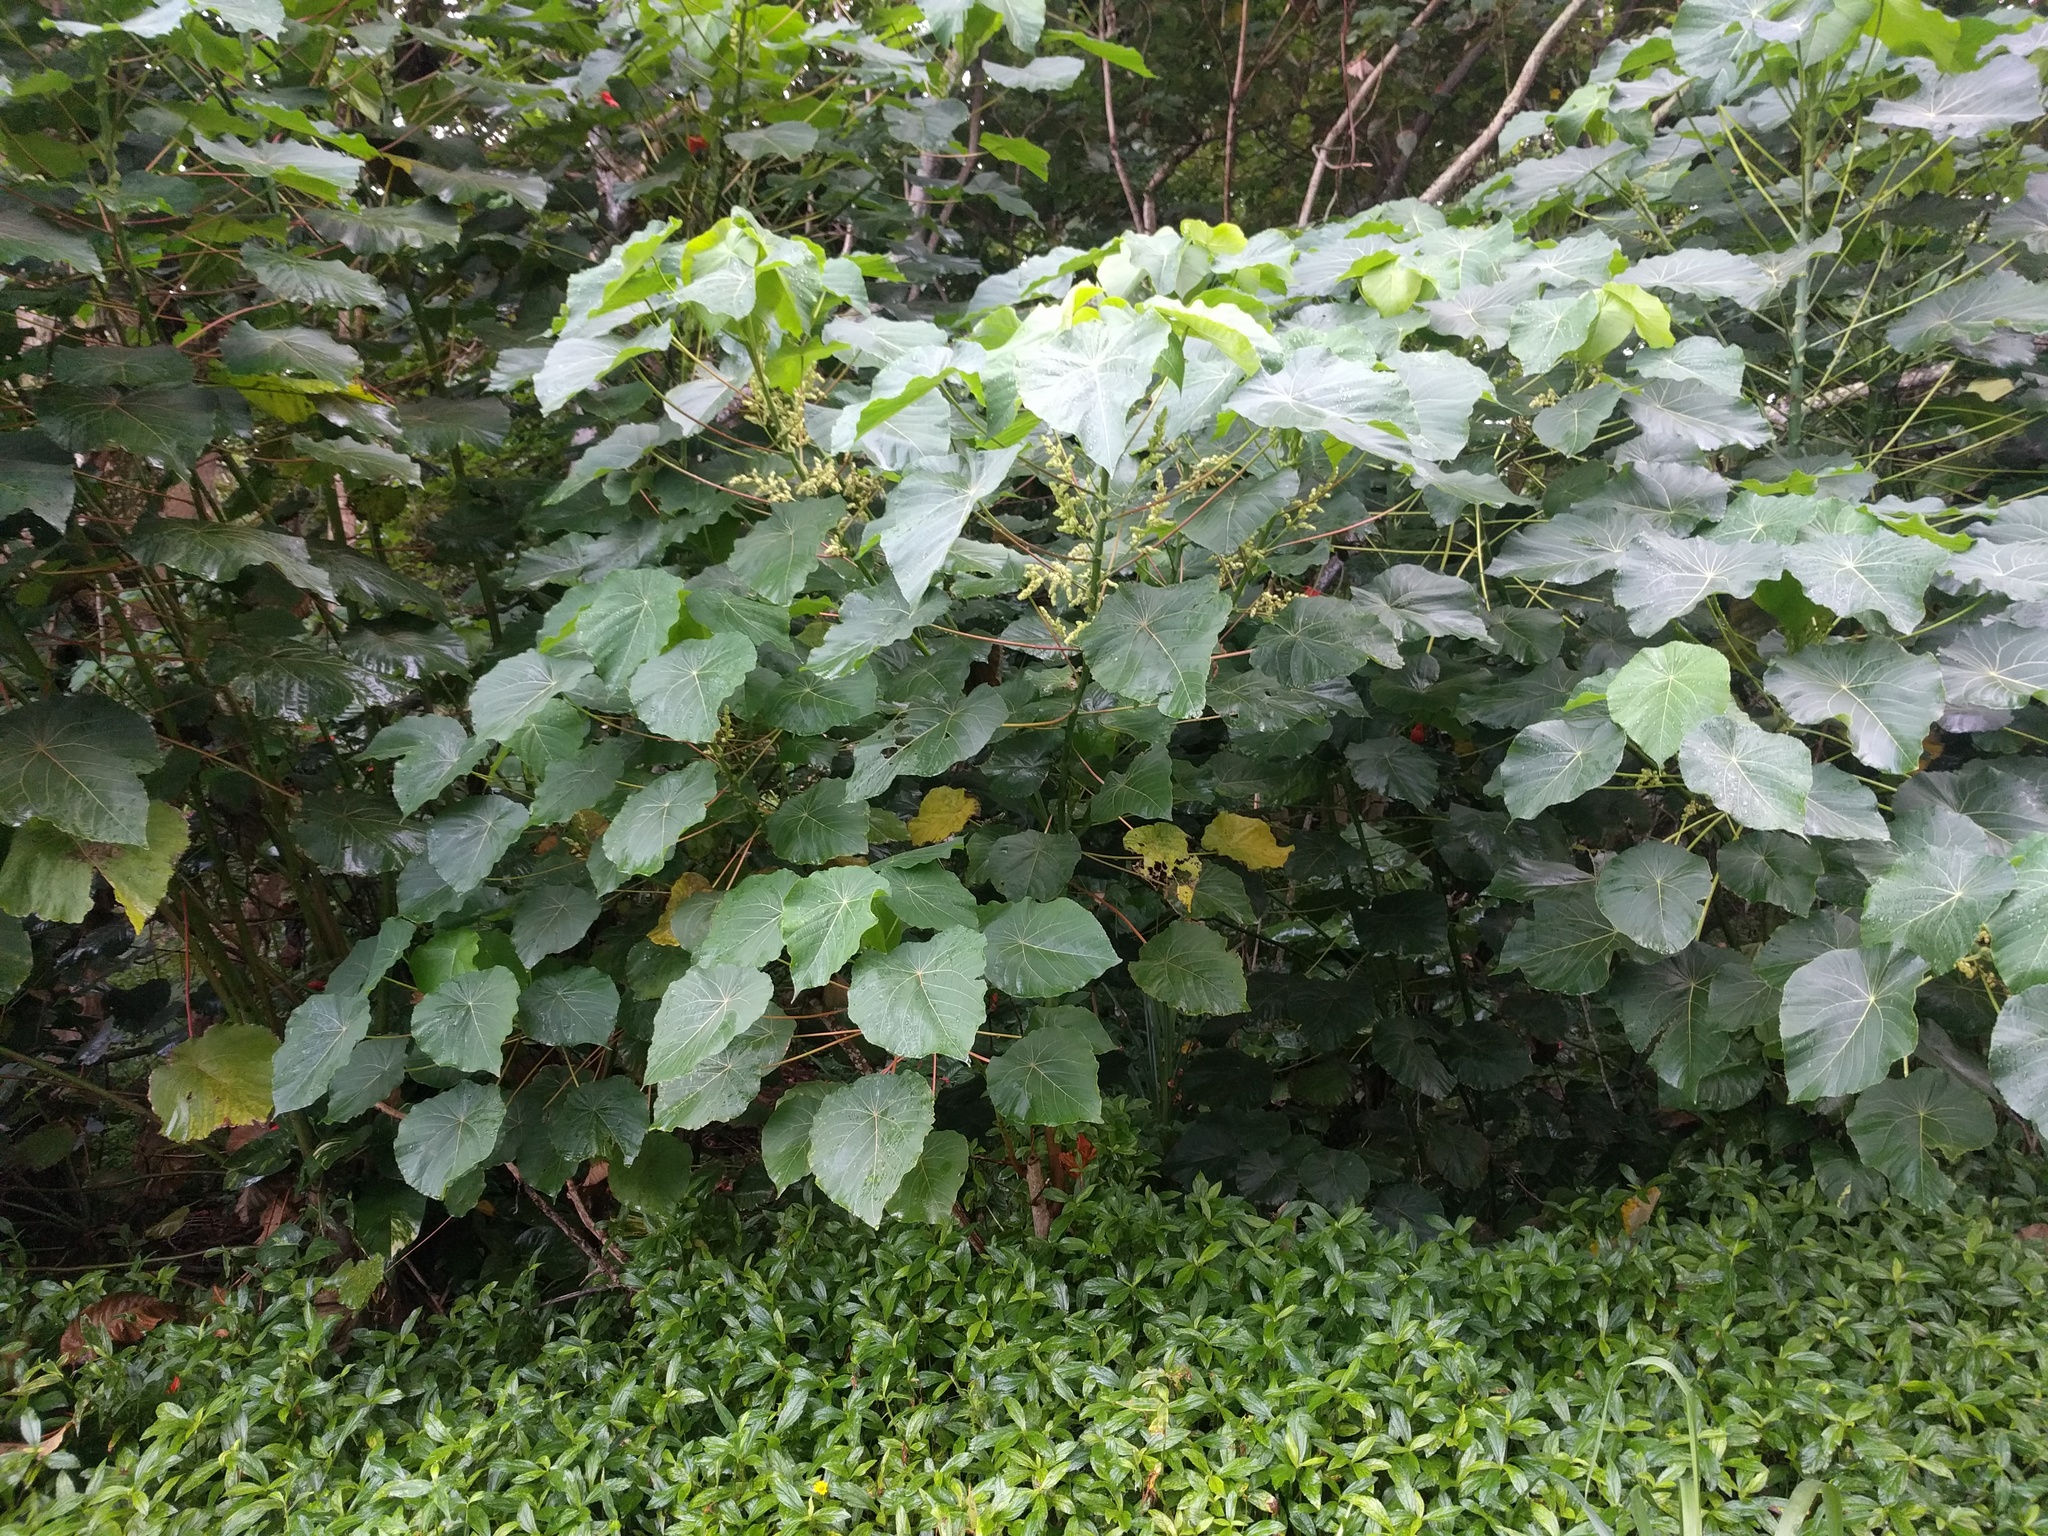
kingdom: Plantae
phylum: Tracheophyta
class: Magnoliopsida
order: Malpighiales
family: Euphorbiaceae
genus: Macaranga
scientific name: Macaranga tanarius
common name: Parasol leaf tree
